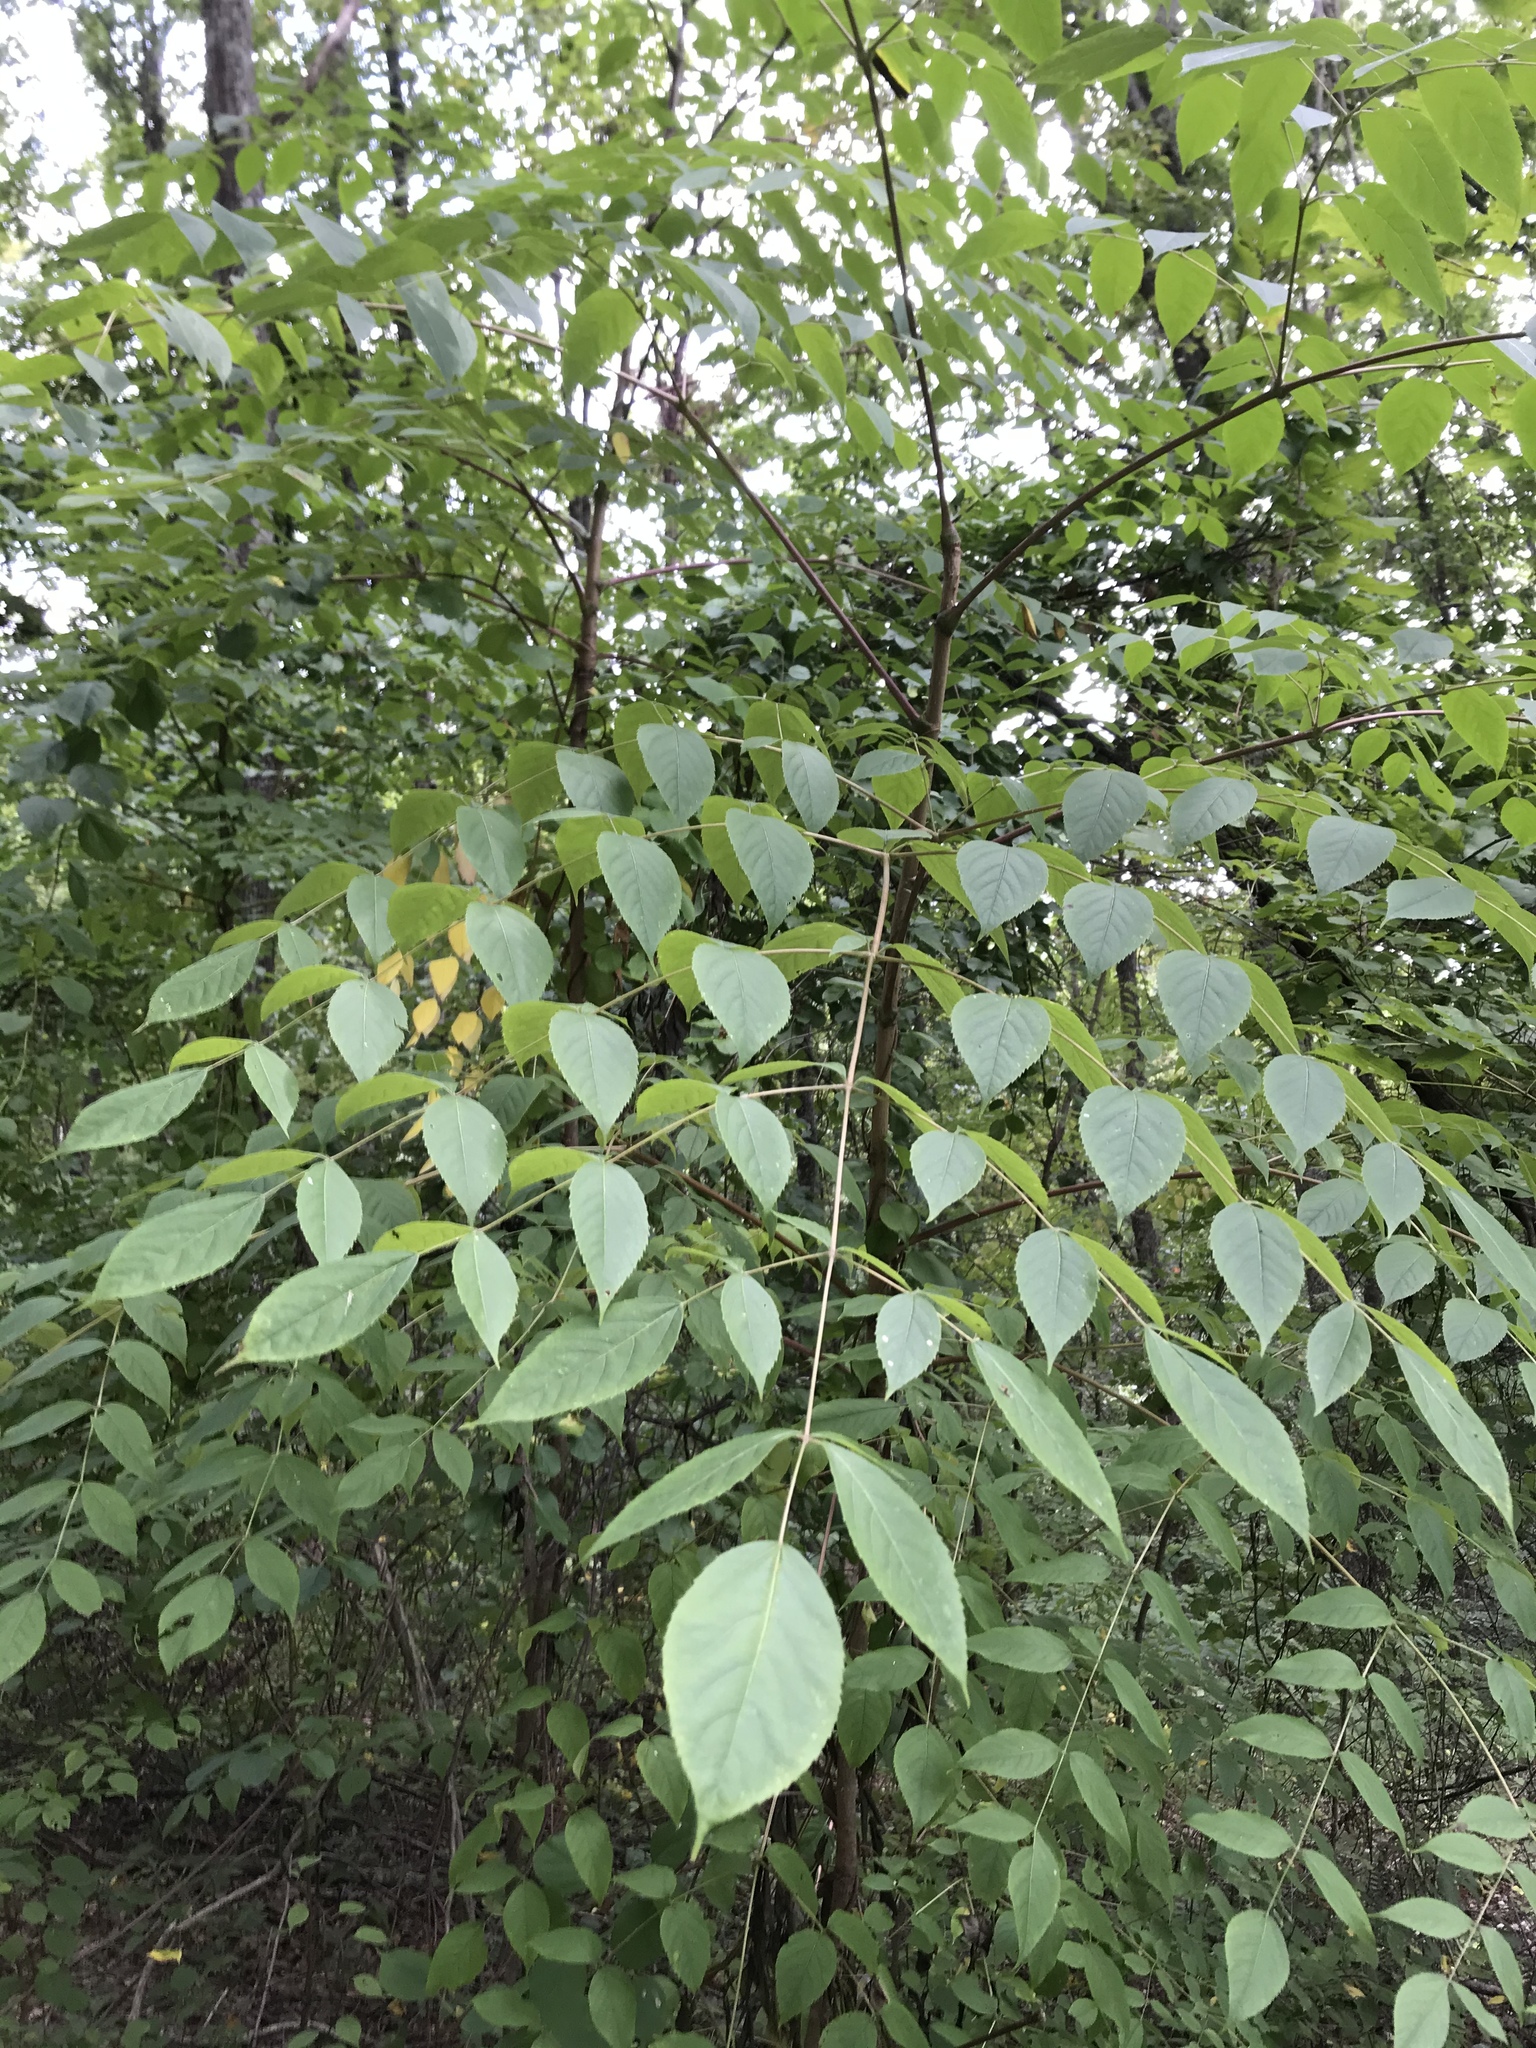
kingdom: Plantae
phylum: Tracheophyta
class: Magnoliopsida
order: Apiales
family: Araliaceae
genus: Aralia
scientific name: Aralia spinosa
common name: Hercules'-club
